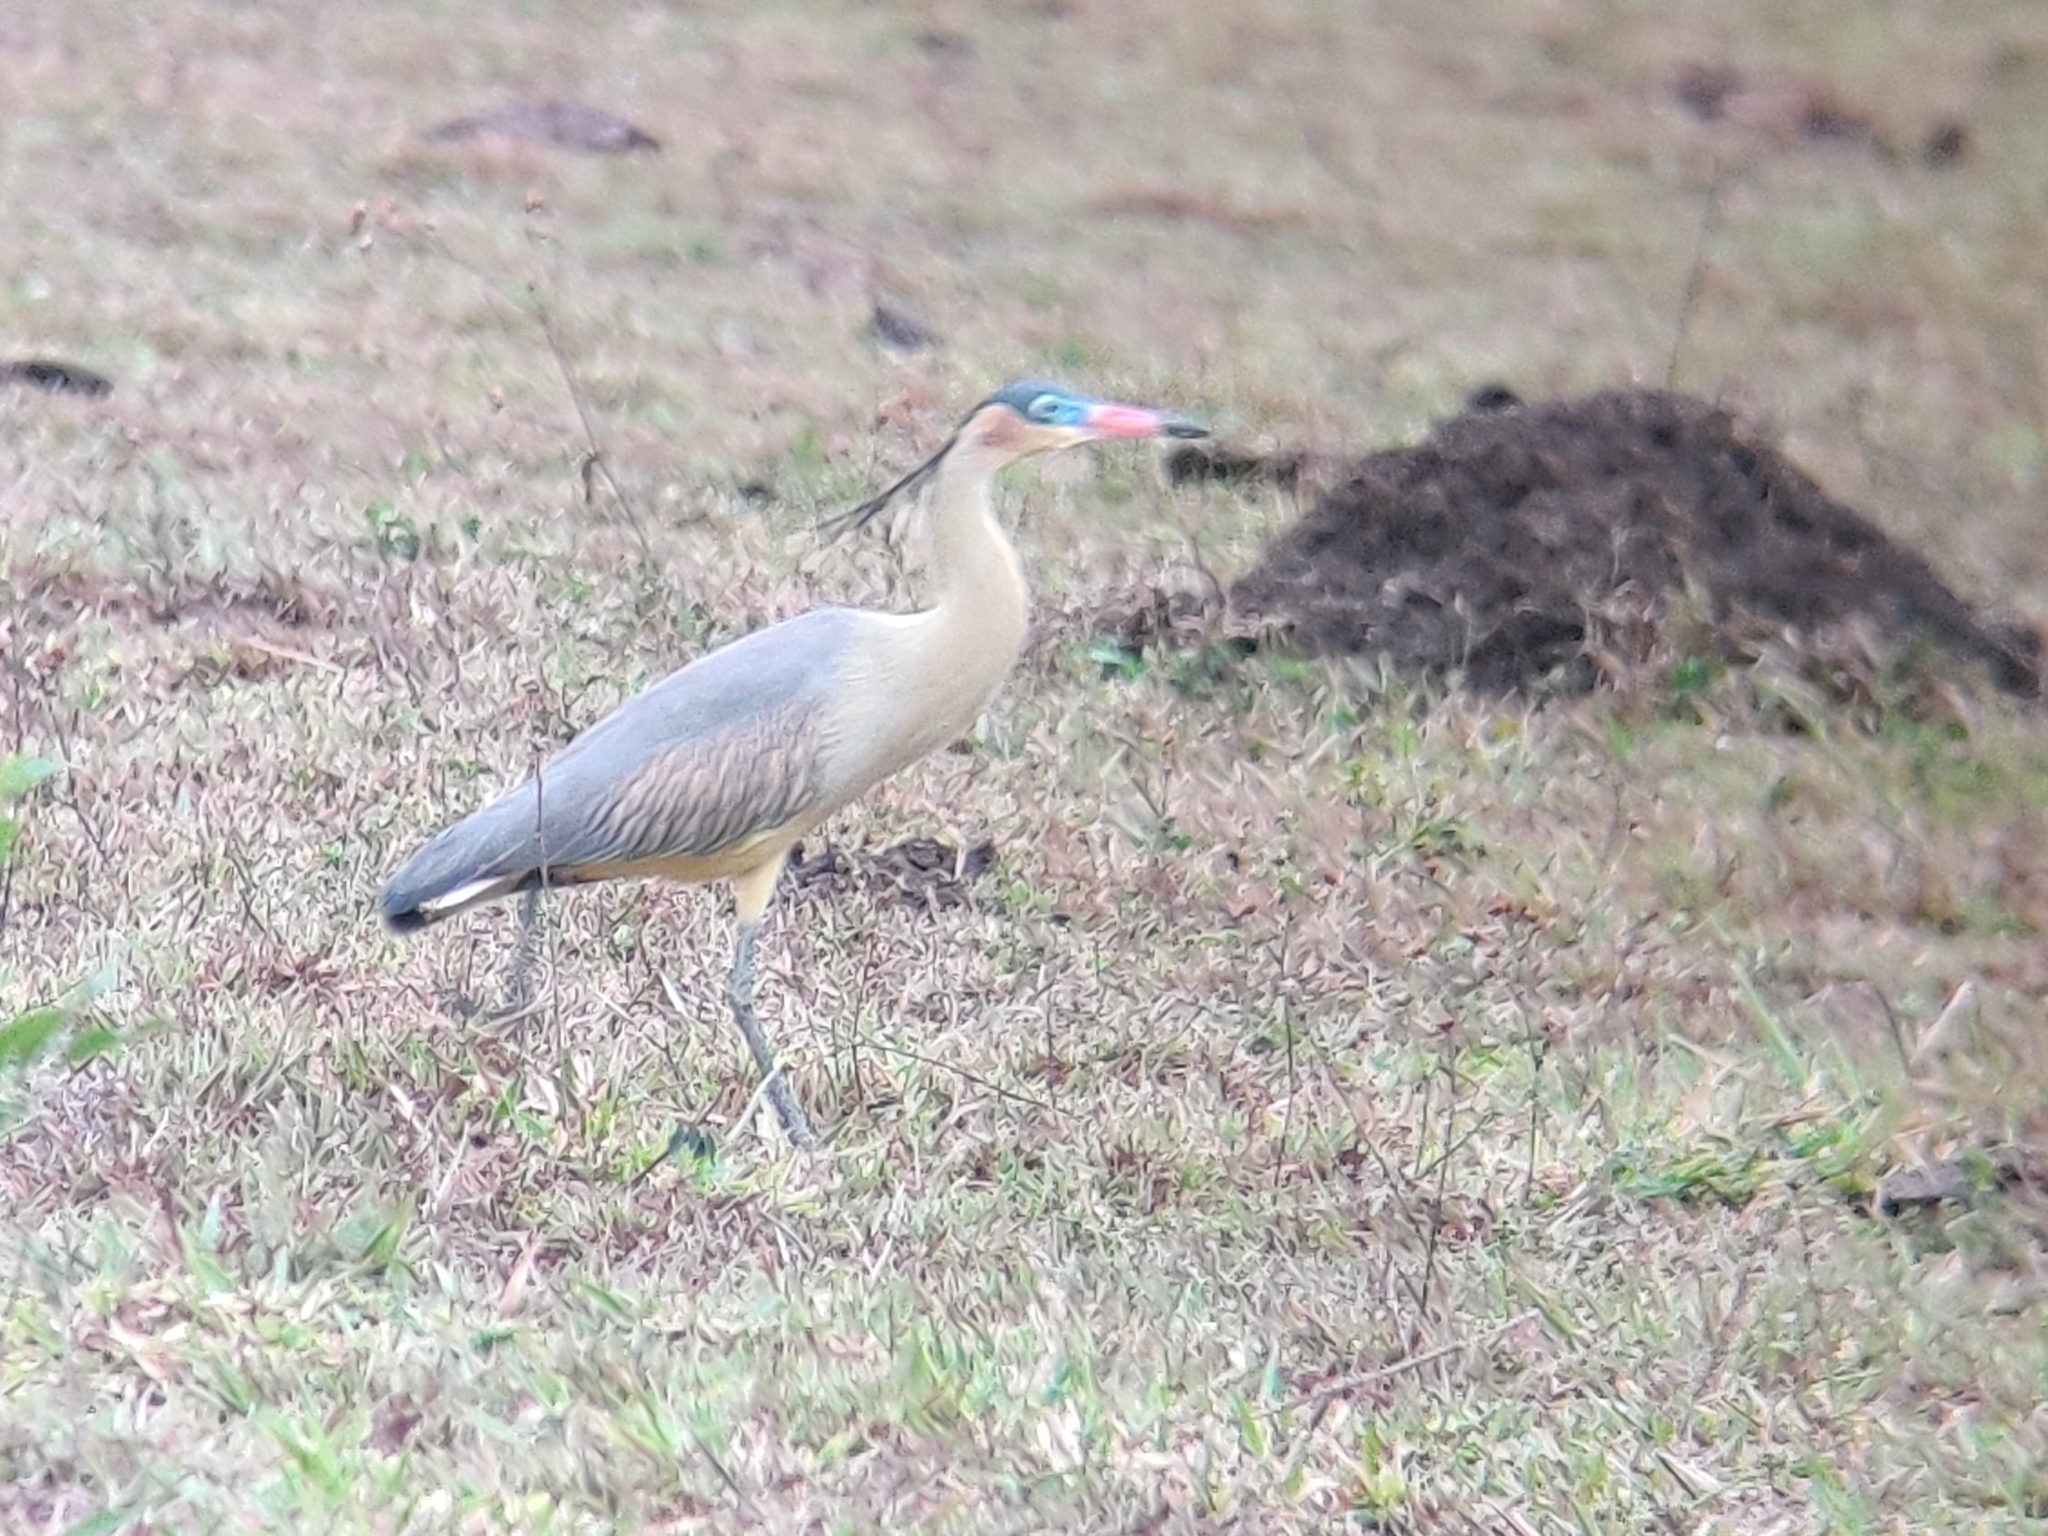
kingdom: Animalia
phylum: Chordata
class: Aves
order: Pelecaniformes
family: Ardeidae
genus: Syrigma
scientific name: Syrigma sibilatrix
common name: Whistling heron
